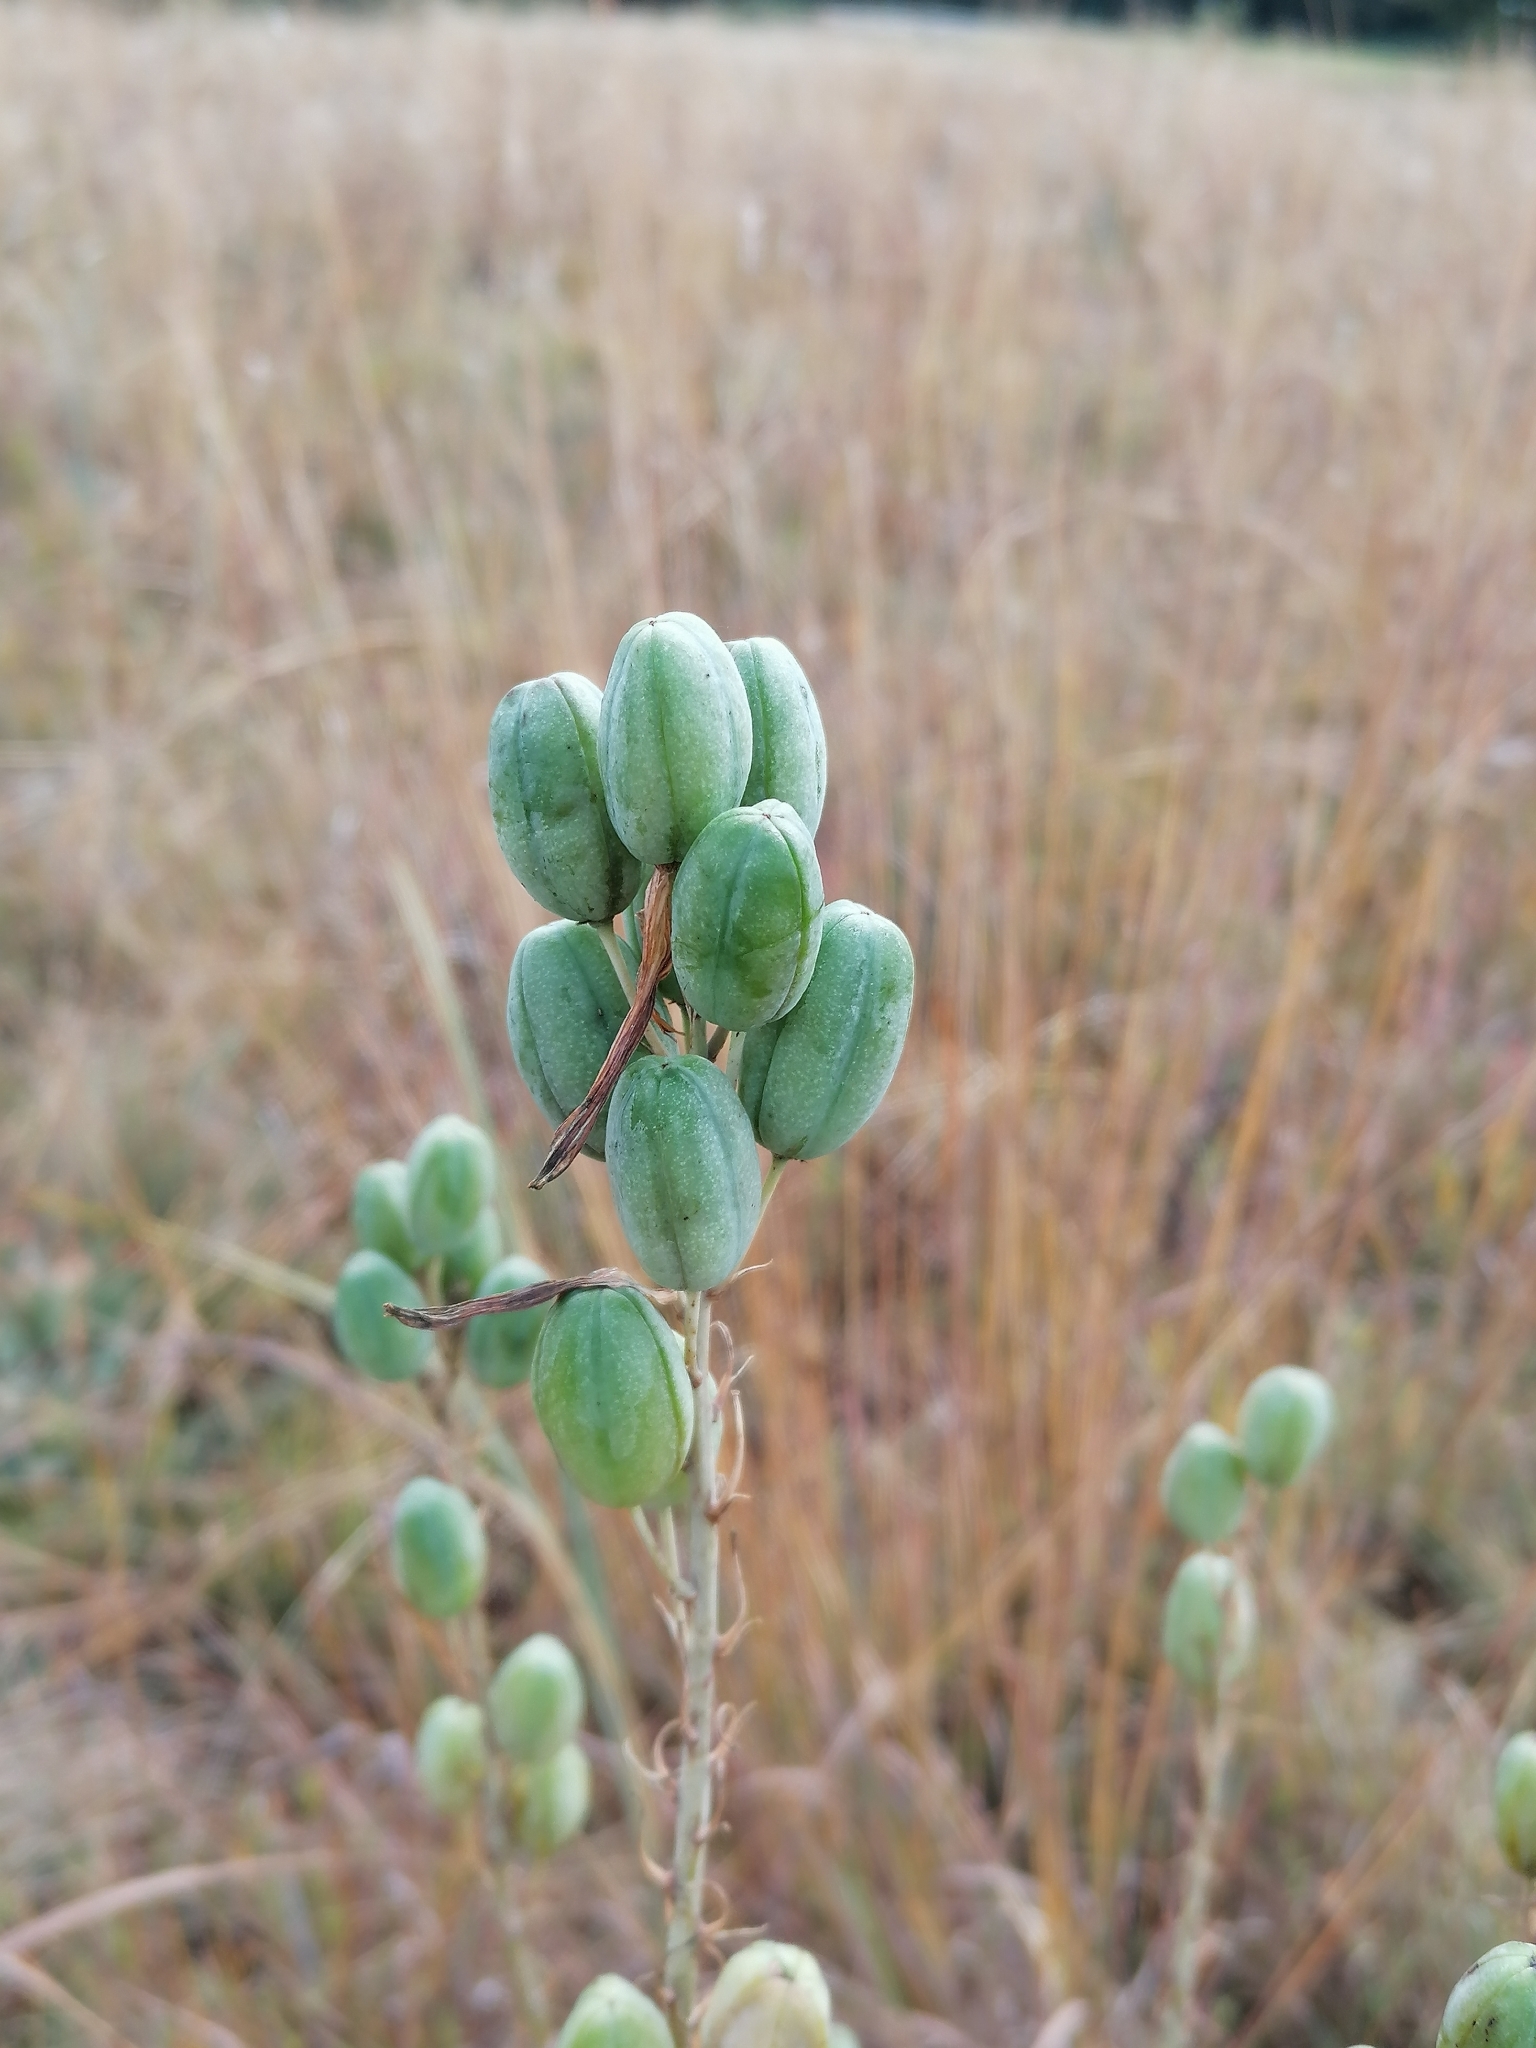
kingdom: Plantae
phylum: Tracheophyta
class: Liliopsida
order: Asparagales
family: Asphodelaceae
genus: Aloe
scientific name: Aloe transvaalensis
